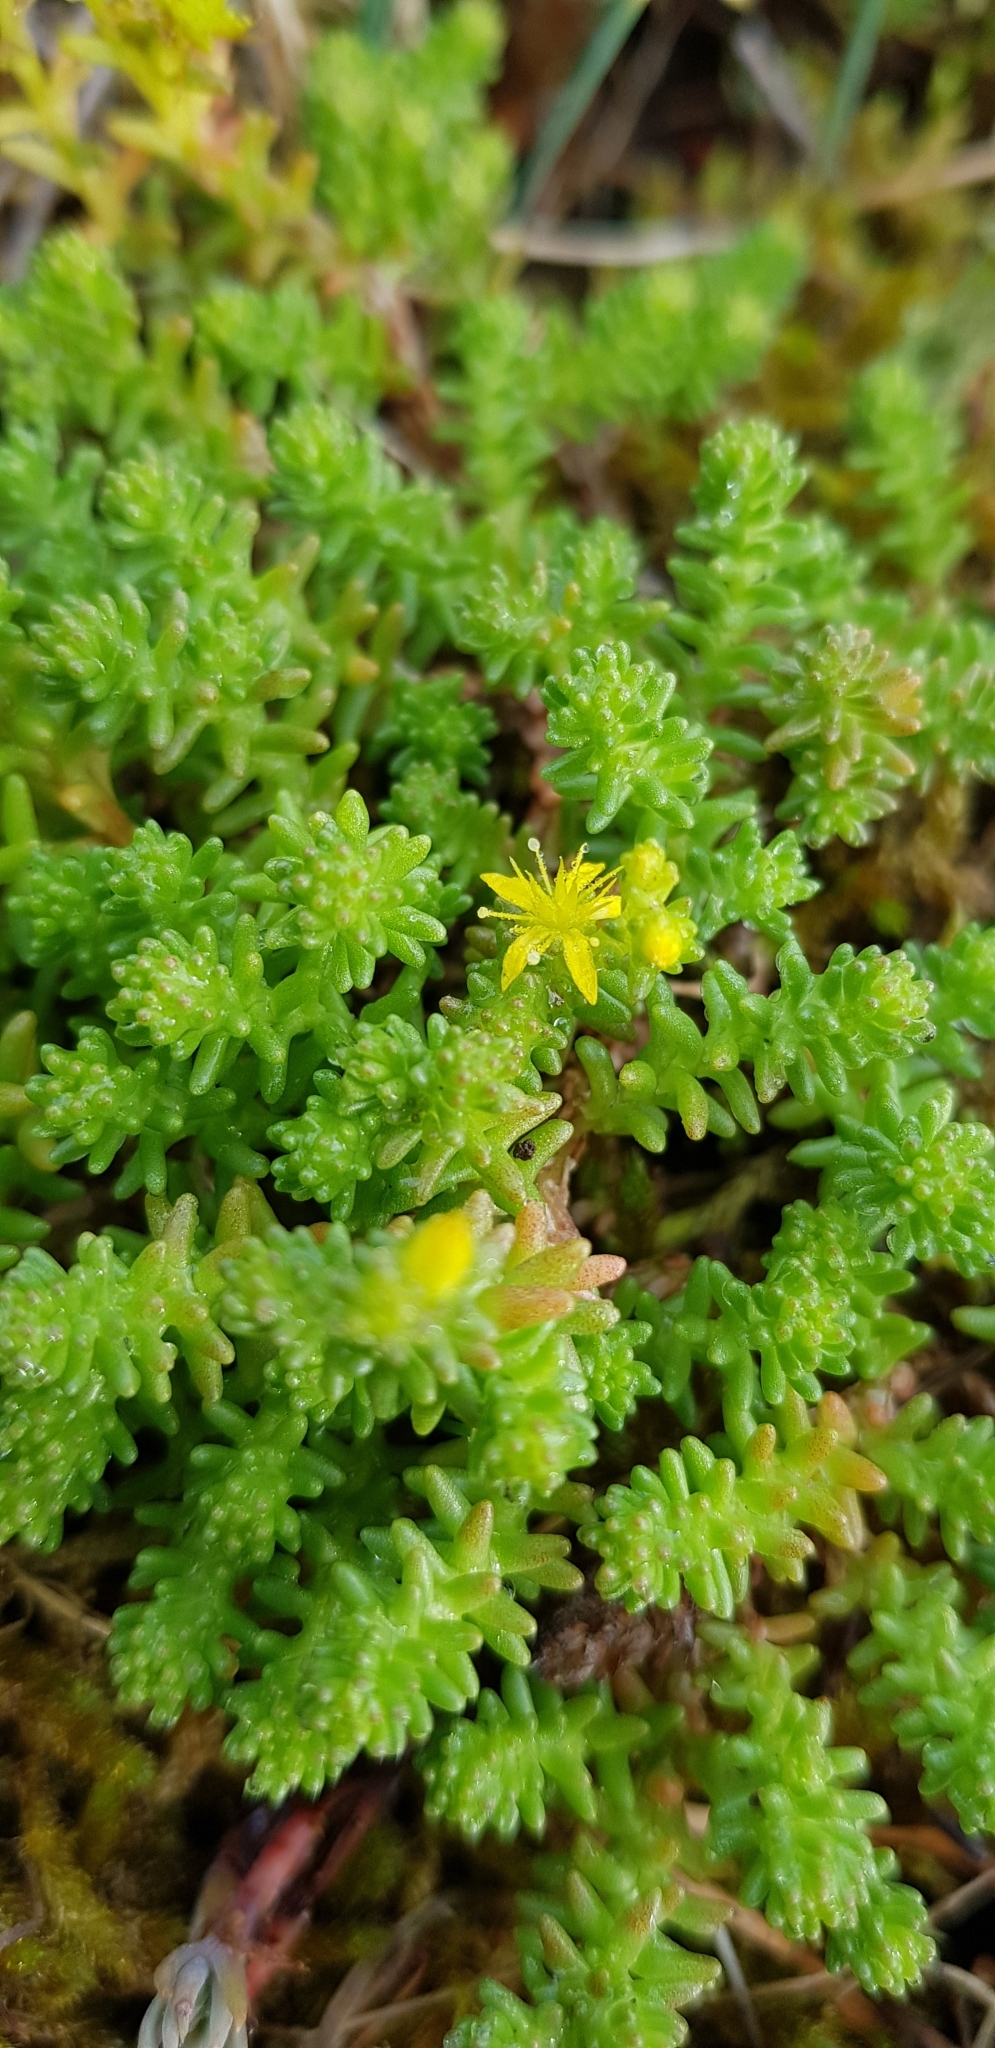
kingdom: Plantae
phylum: Tracheophyta
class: Magnoliopsida
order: Saxifragales
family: Crassulaceae
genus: Sedum
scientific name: Sedum sexangulare
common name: Tasteless stonecrop
